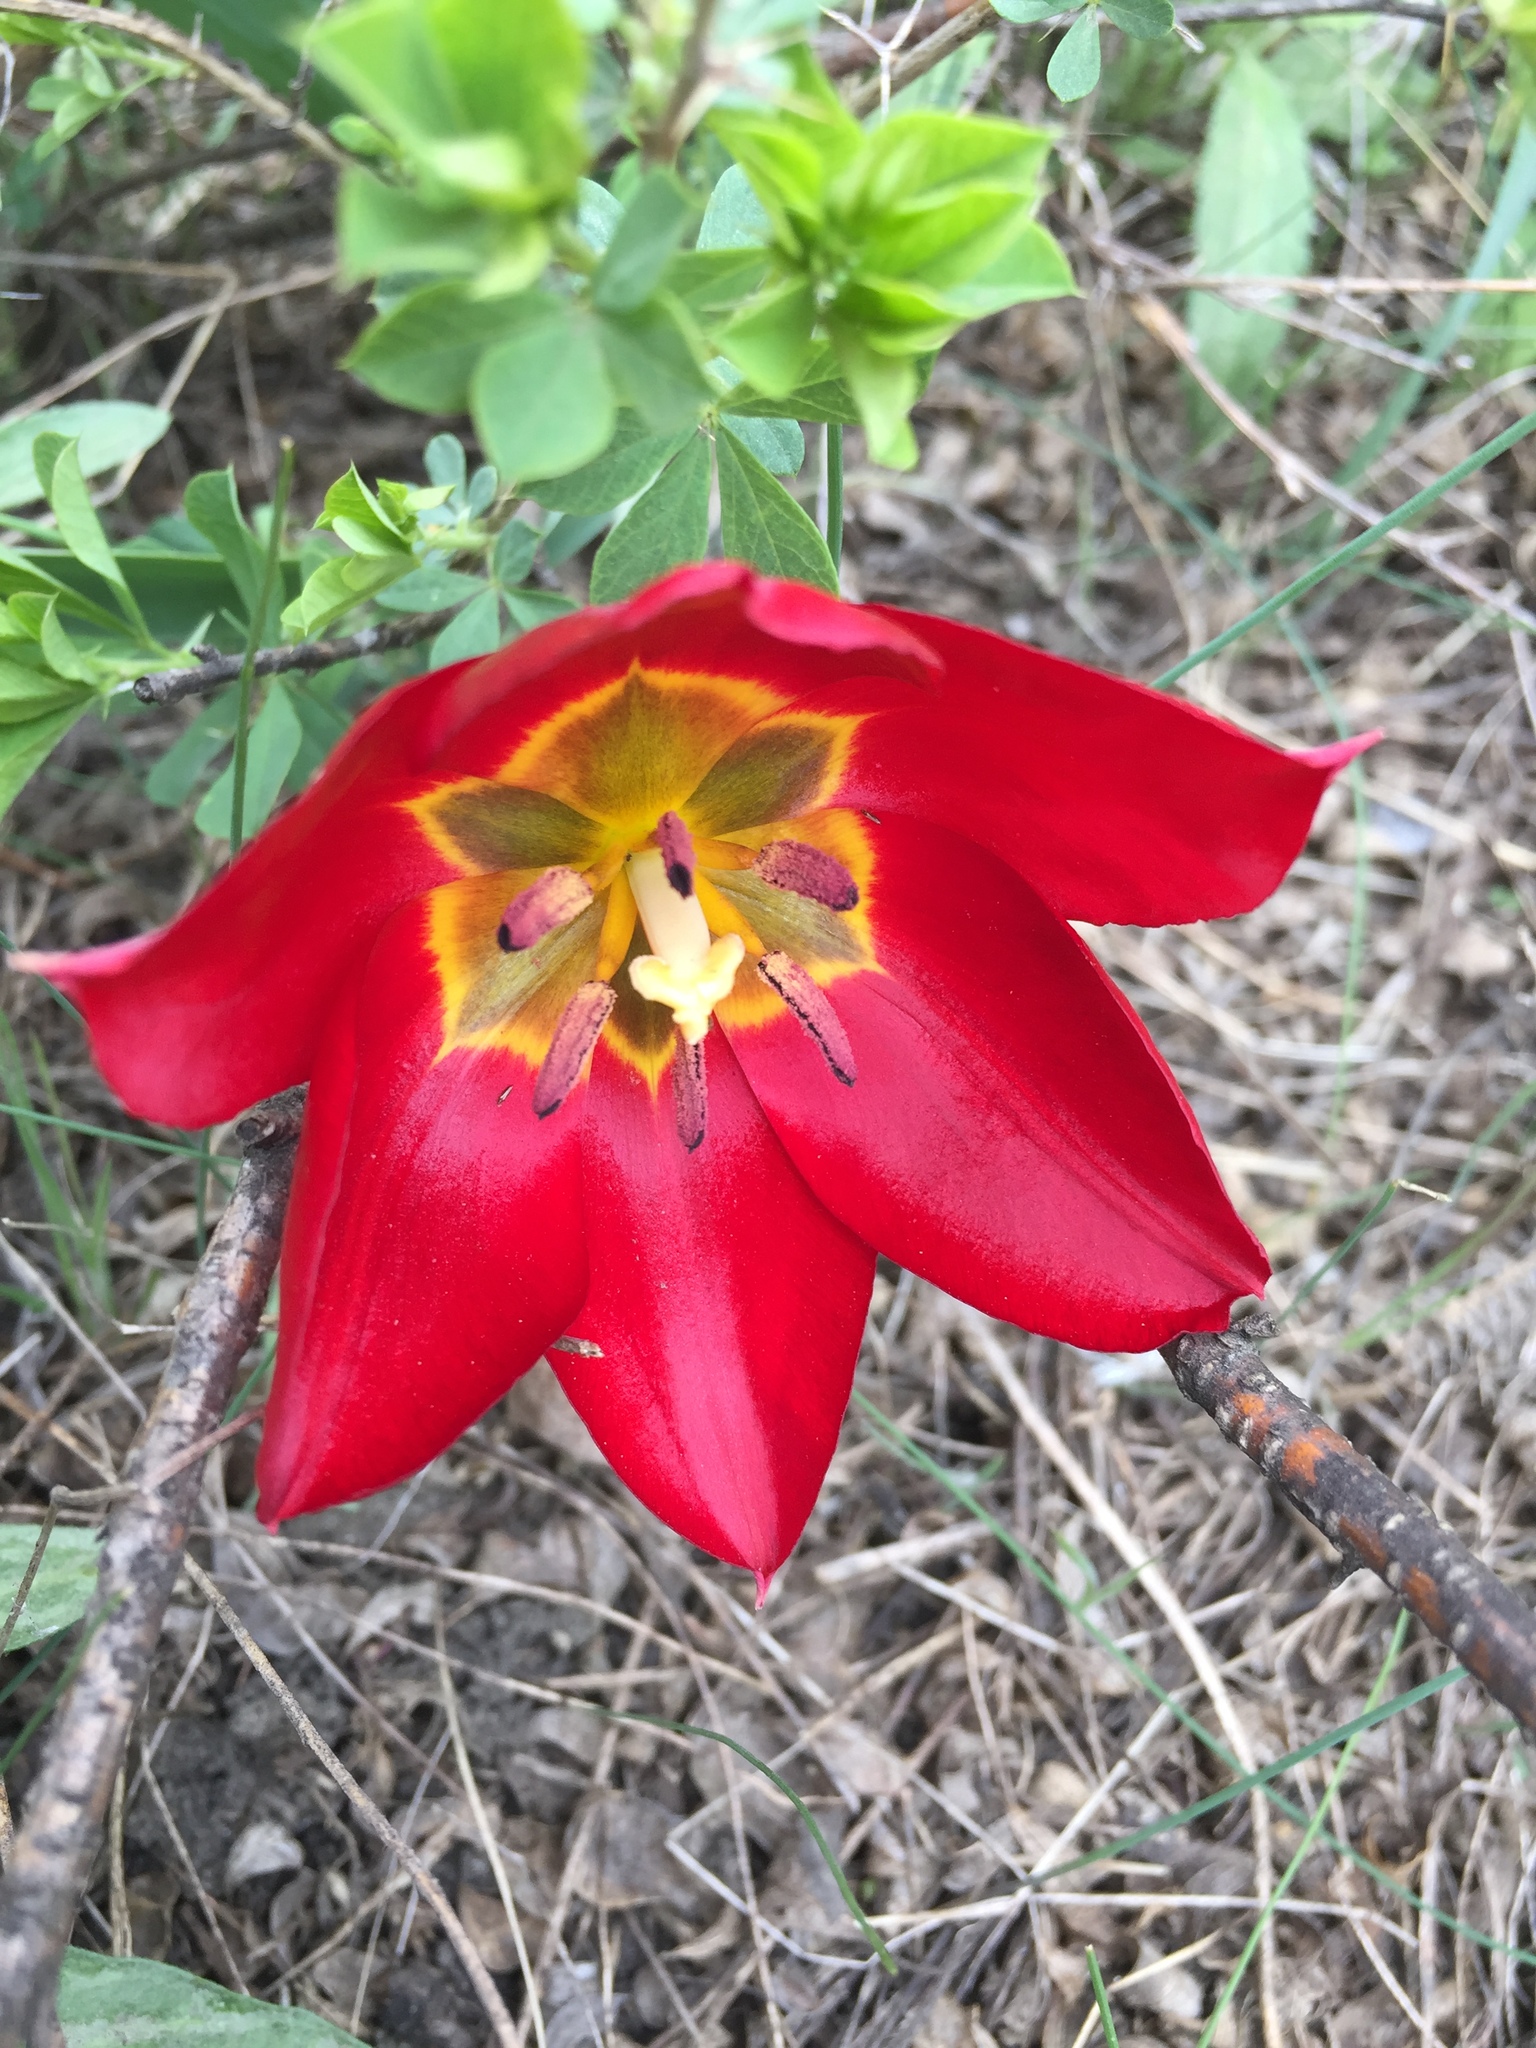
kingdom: Plantae
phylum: Tracheophyta
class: Liliopsida
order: Liliales
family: Liliaceae
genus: Tulipa
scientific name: Tulipa suaveolens
